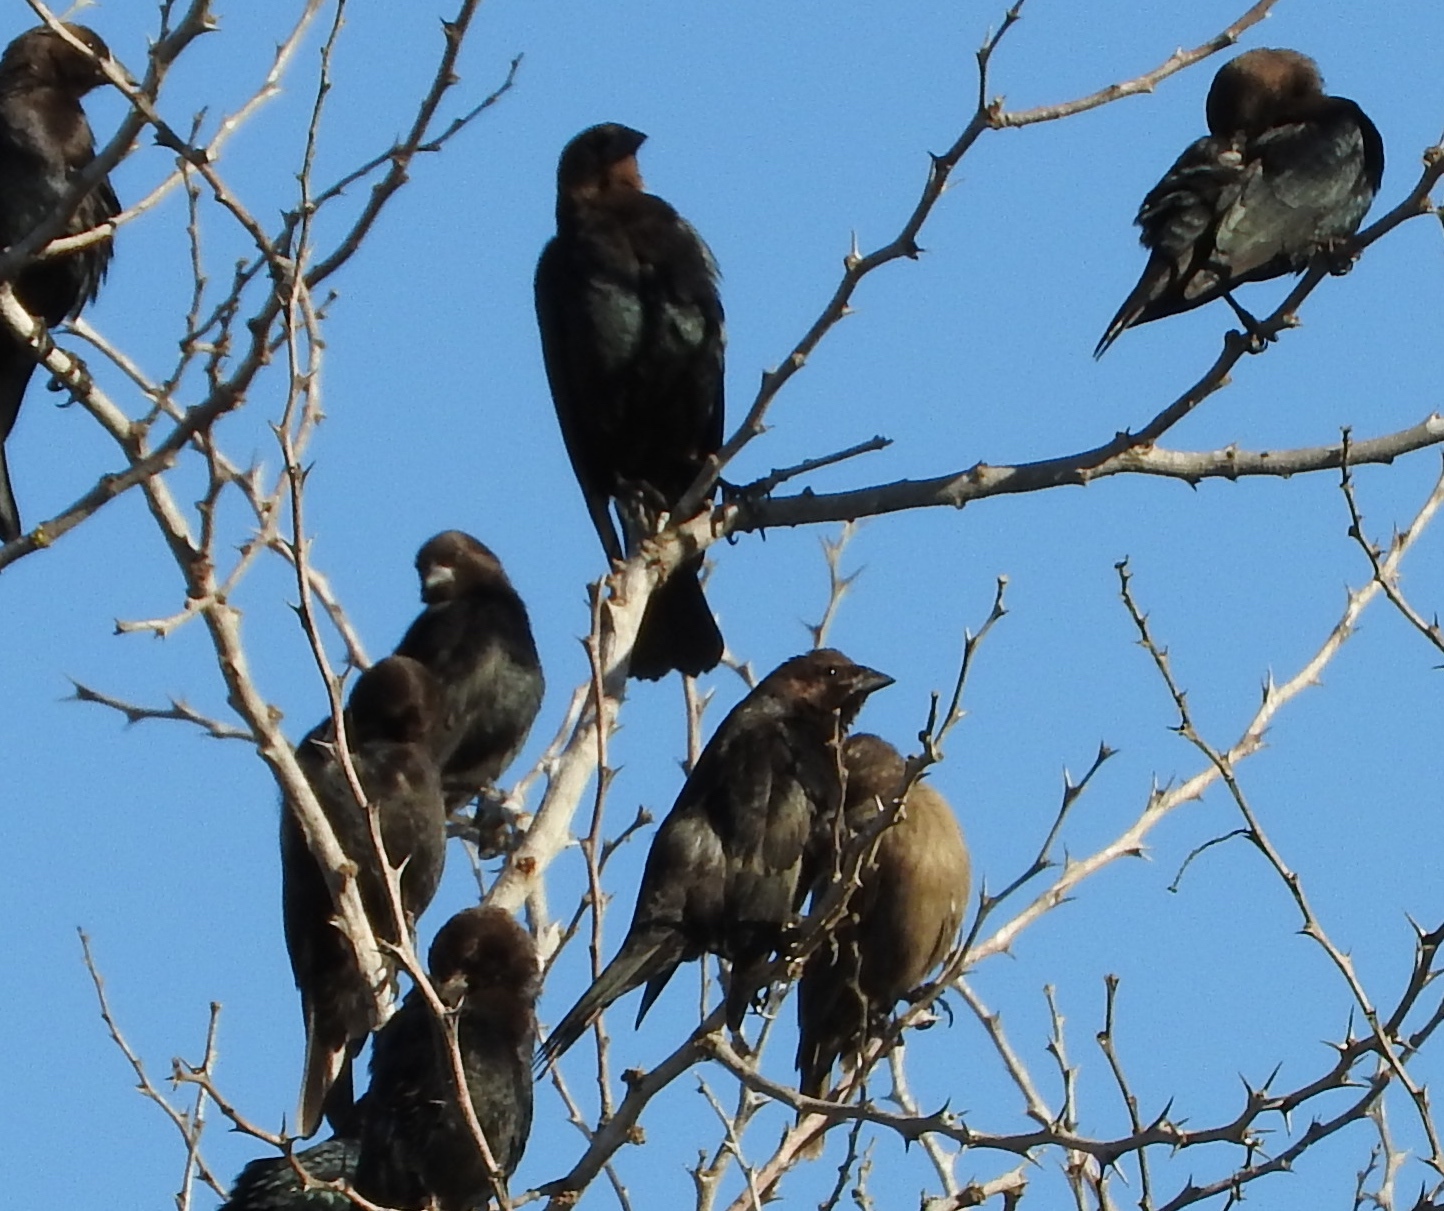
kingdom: Animalia
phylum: Chordata
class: Aves
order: Passeriformes
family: Icteridae
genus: Molothrus
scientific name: Molothrus ater
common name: Brown-headed cowbird
